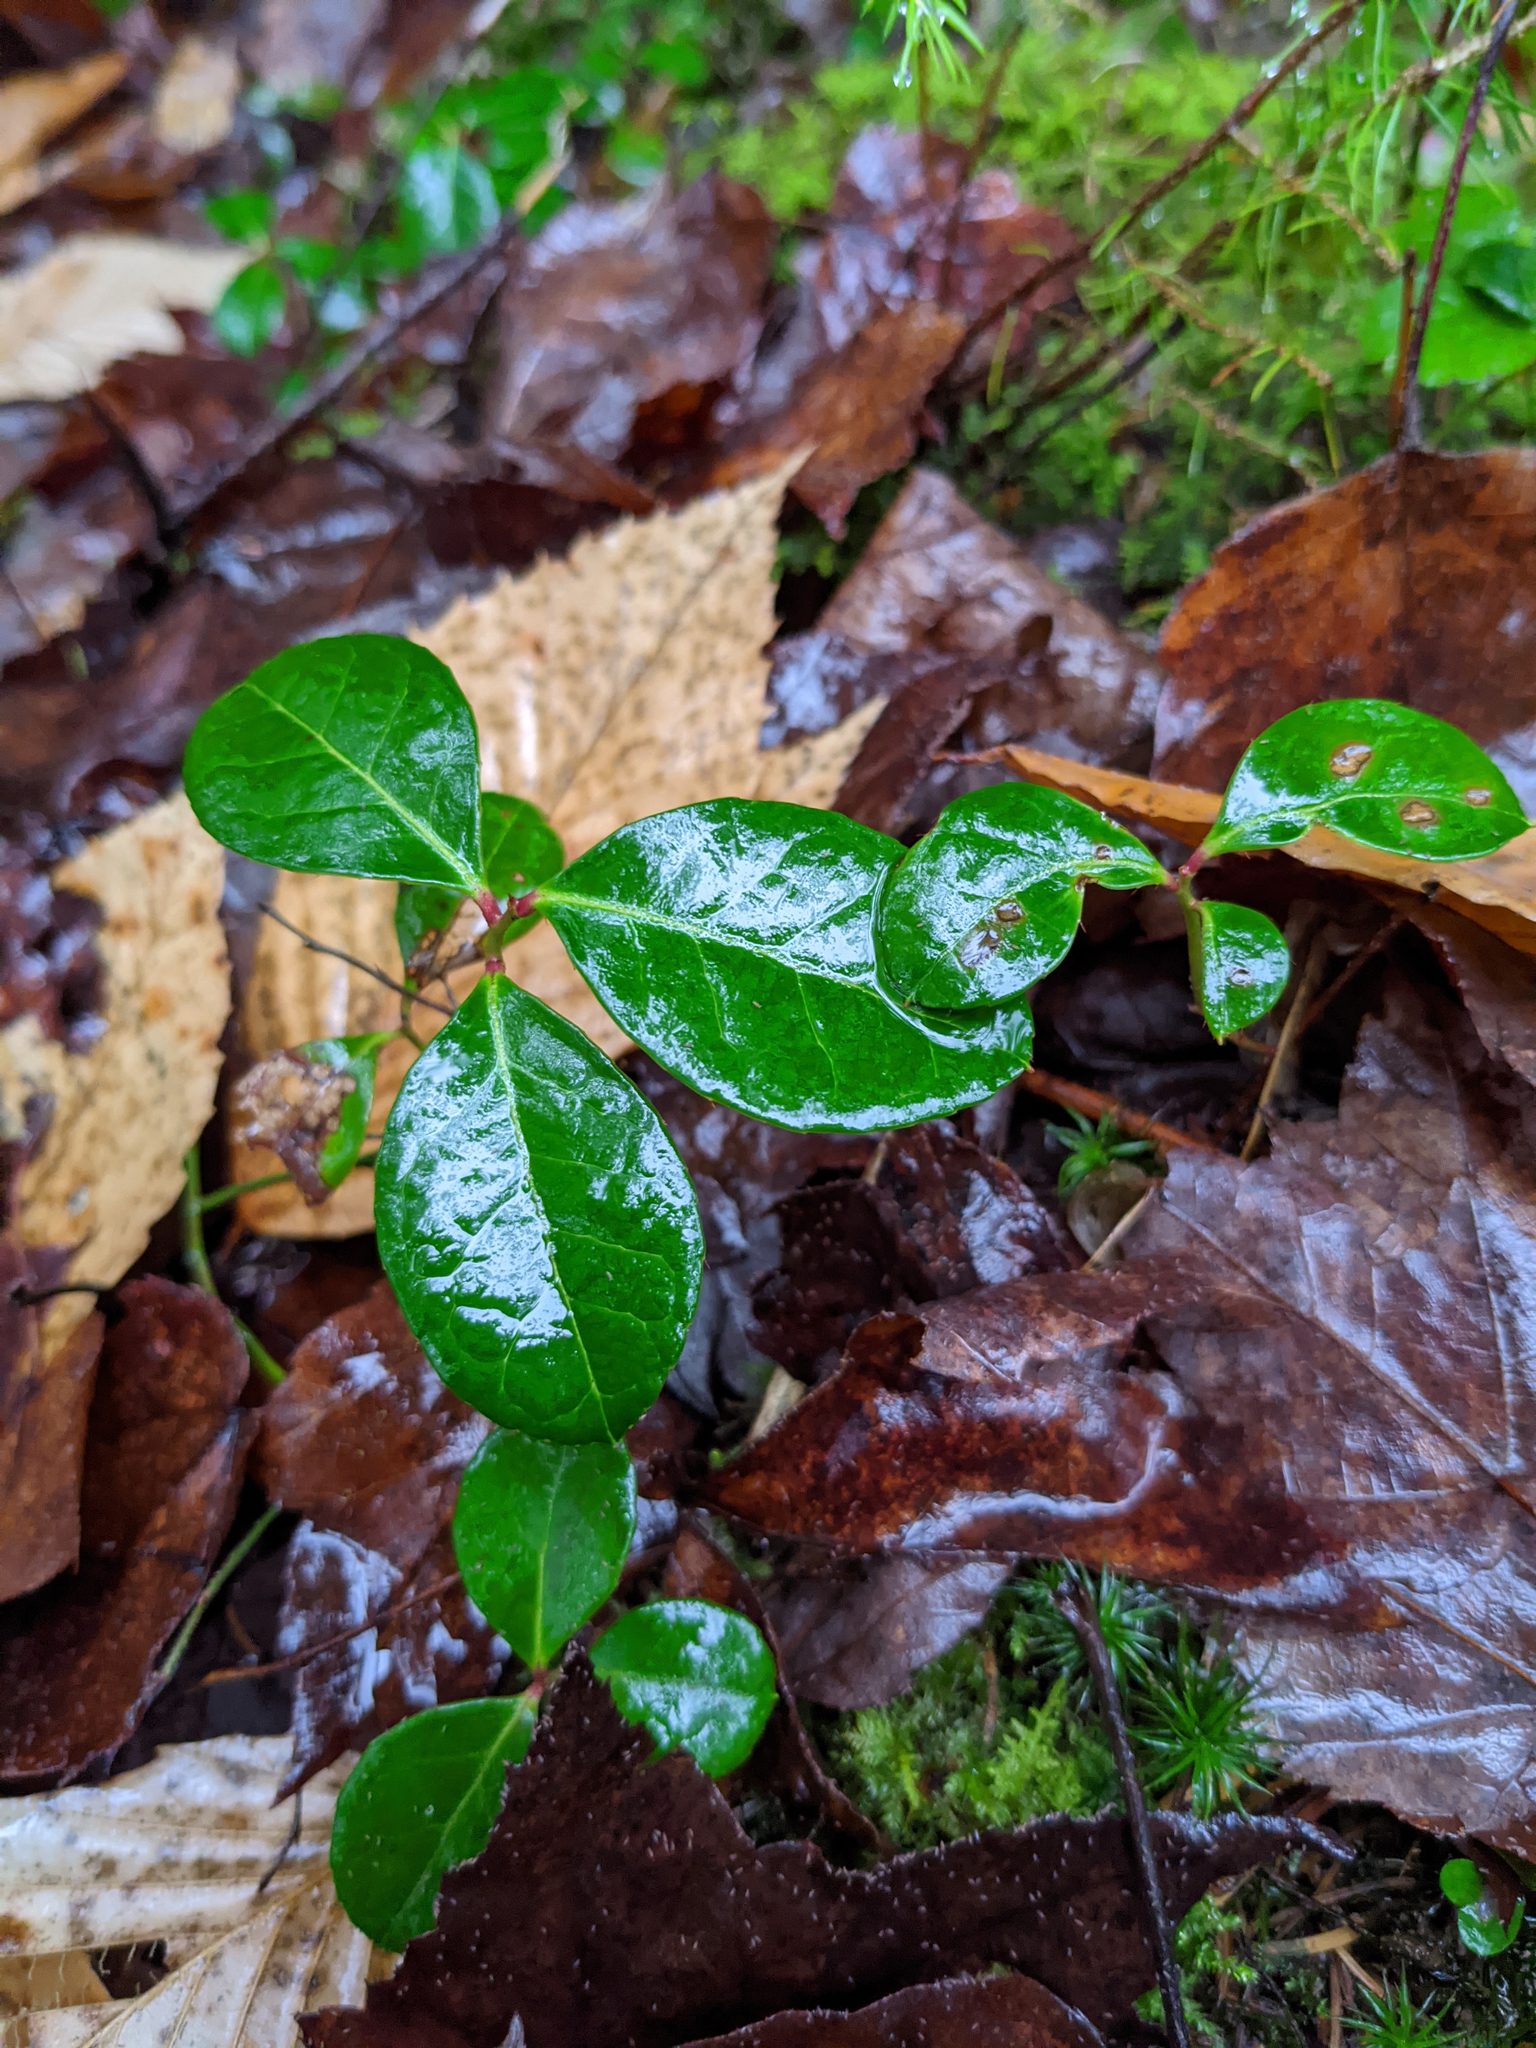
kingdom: Plantae
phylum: Tracheophyta
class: Magnoliopsida
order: Ericales
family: Ericaceae
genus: Gaultheria
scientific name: Gaultheria procumbens
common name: Checkerberry
